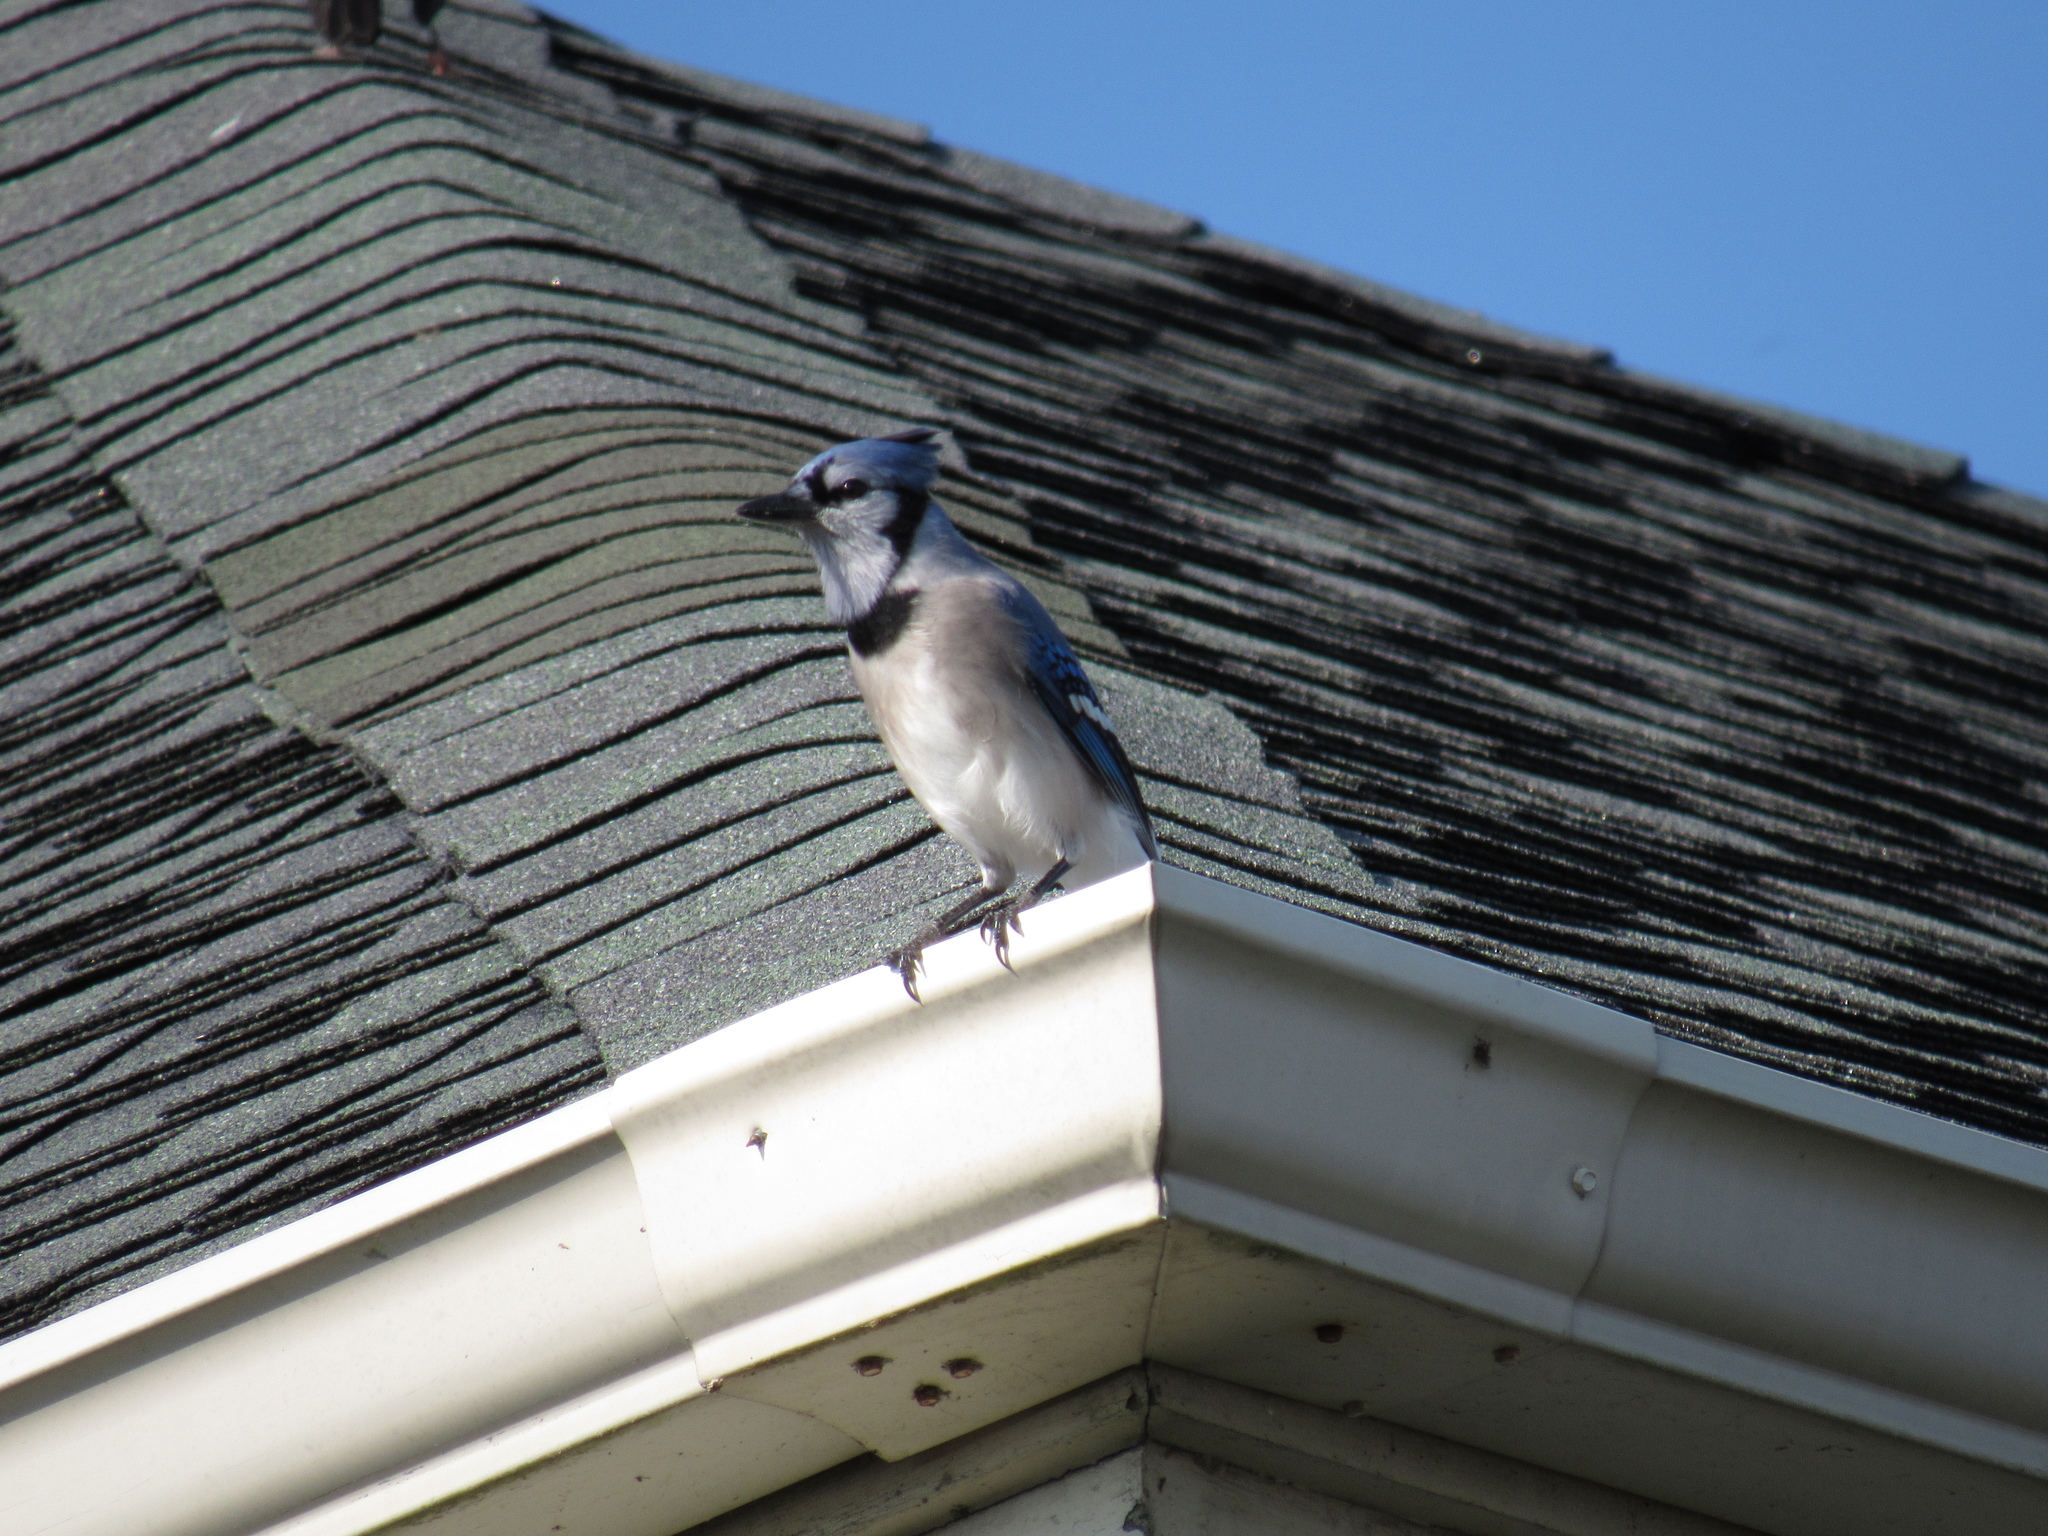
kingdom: Animalia
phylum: Chordata
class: Aves
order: Passeriformes
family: Corvidae
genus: Cyanocitta
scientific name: Cyanocitta cristata
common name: Blue jay
